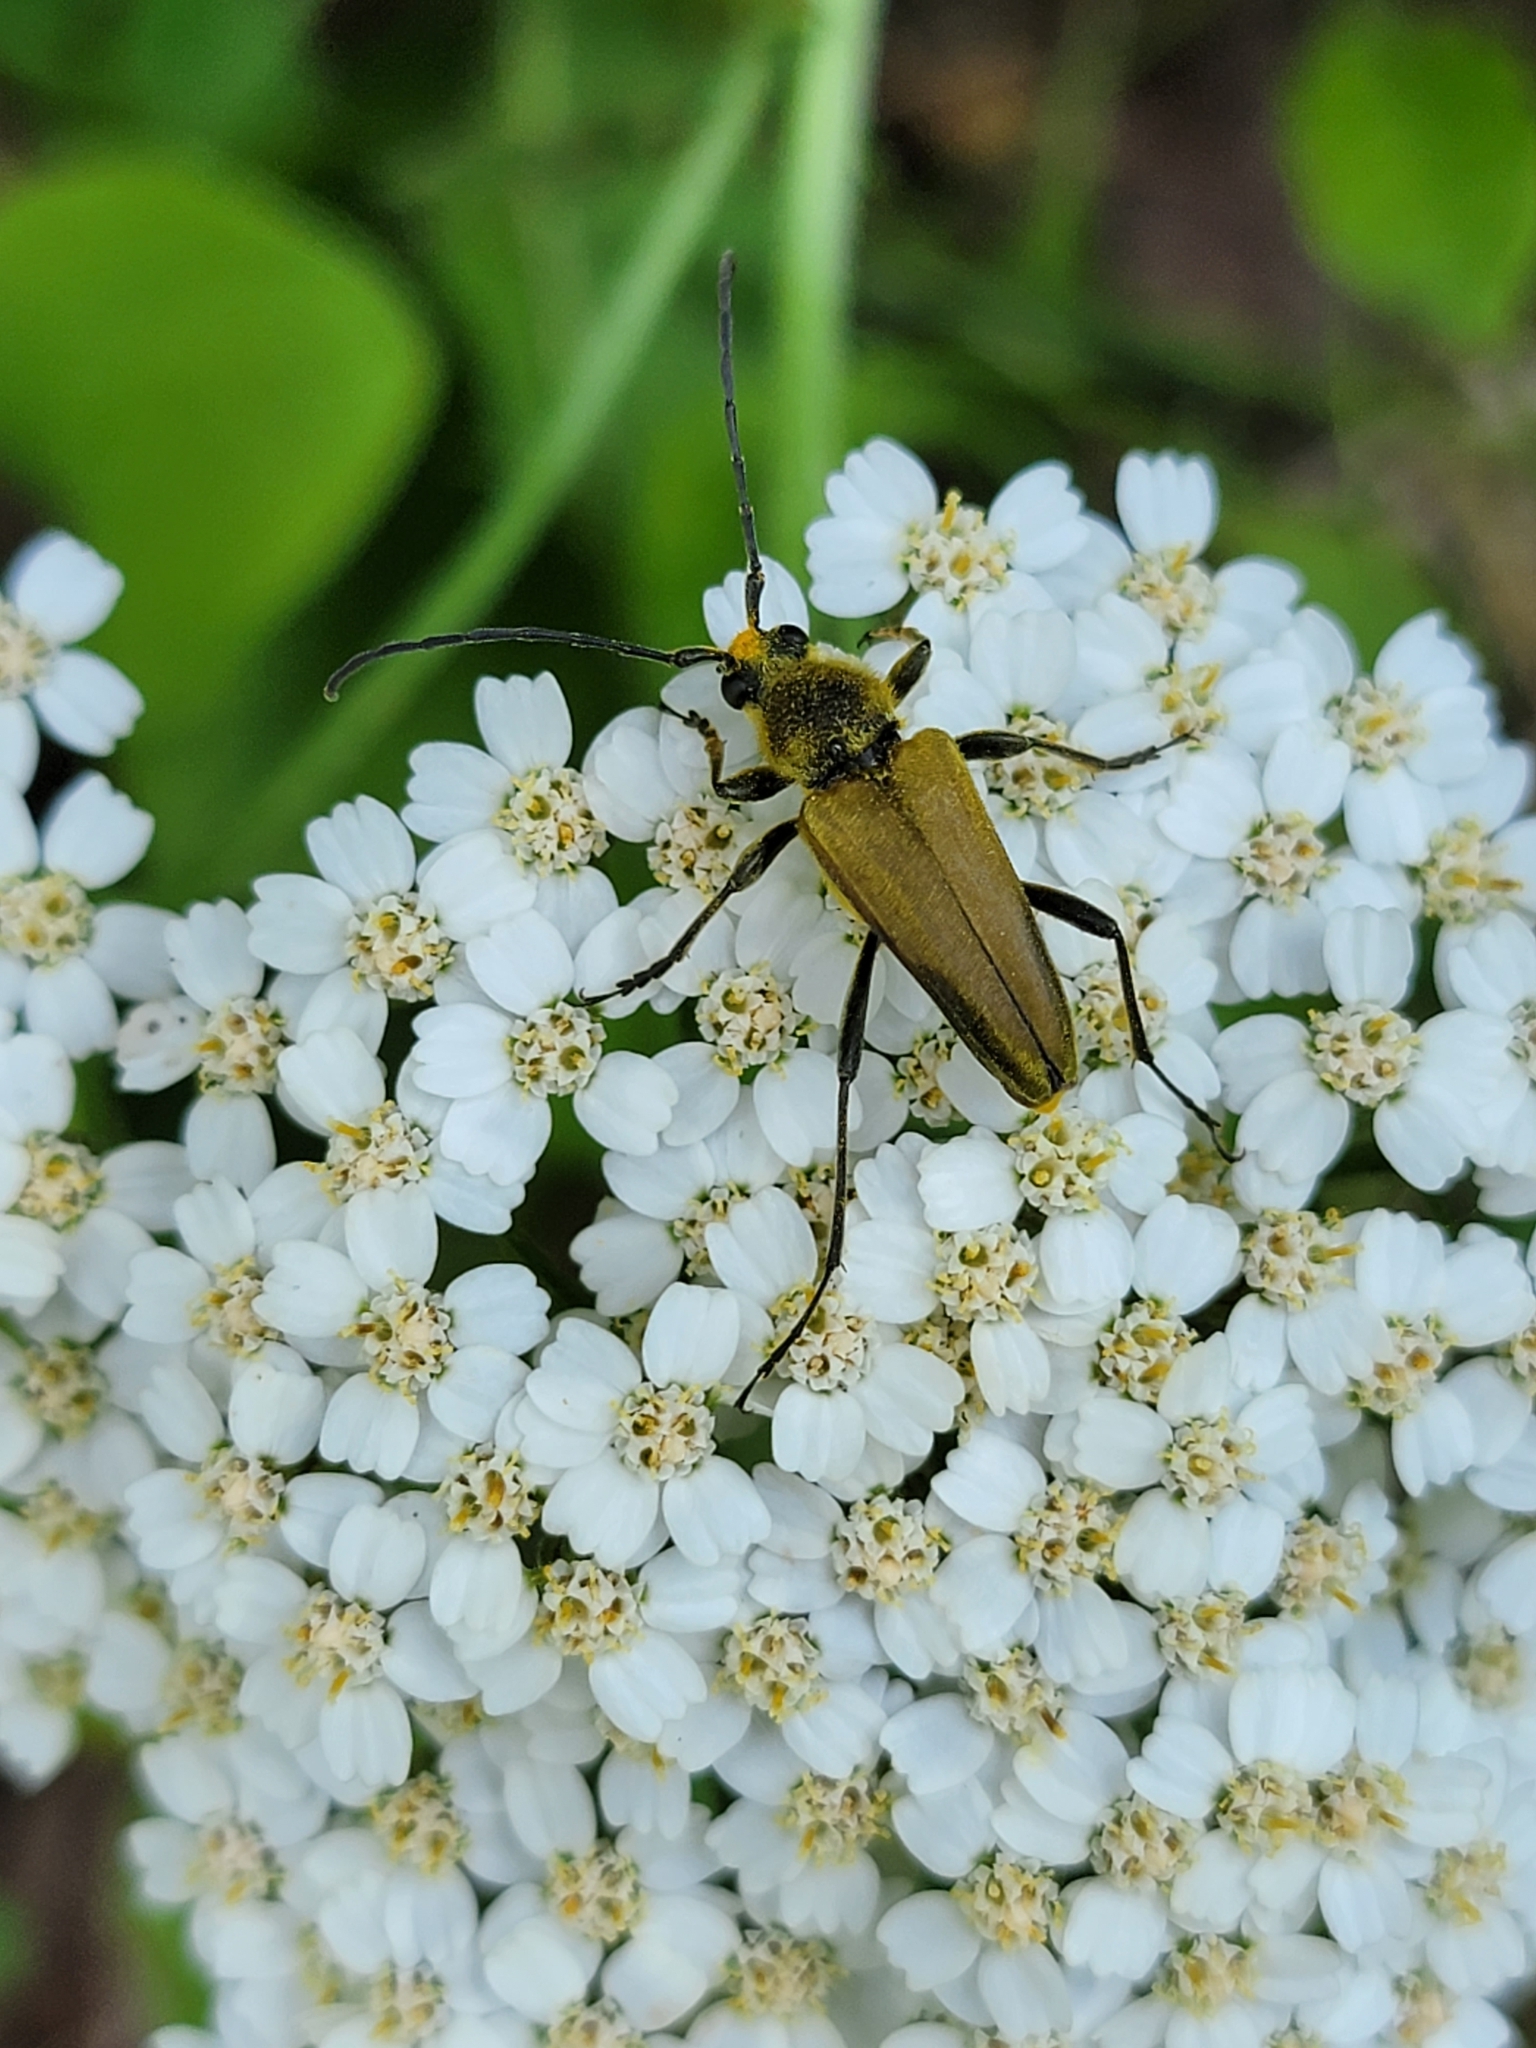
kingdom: Animalia
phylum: Arthropoda
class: Insecta
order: Coleoptera
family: Cerambycidae
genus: Cosmosalia
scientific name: Cosmosalia chrysocoma
